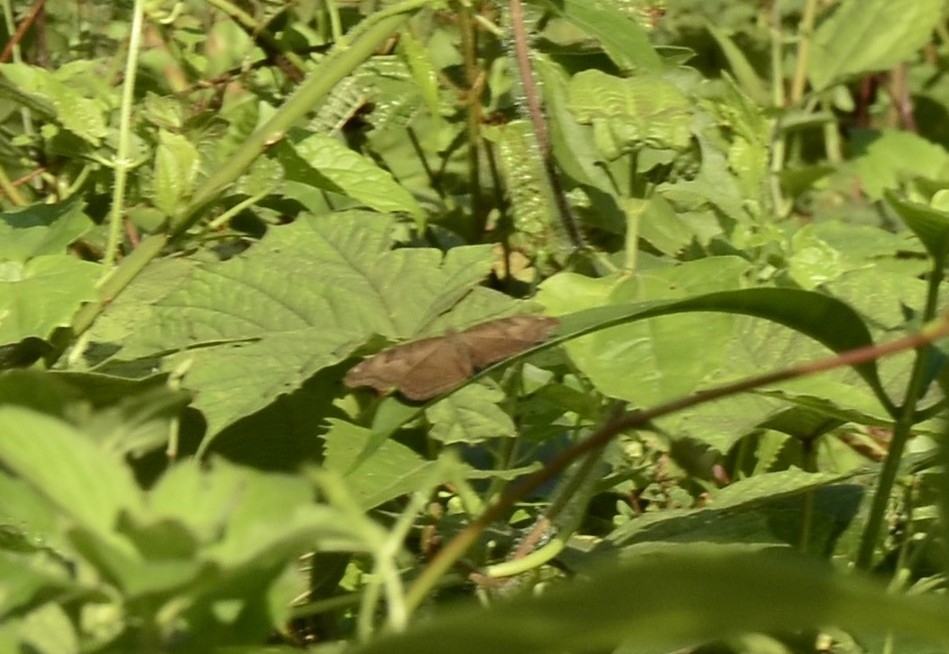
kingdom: Animalia
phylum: Arthropoda
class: Insecta
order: Lepidoptera
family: Nymphalidae
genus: Junonia
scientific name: Junonia iphita
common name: Chocolate pansy
